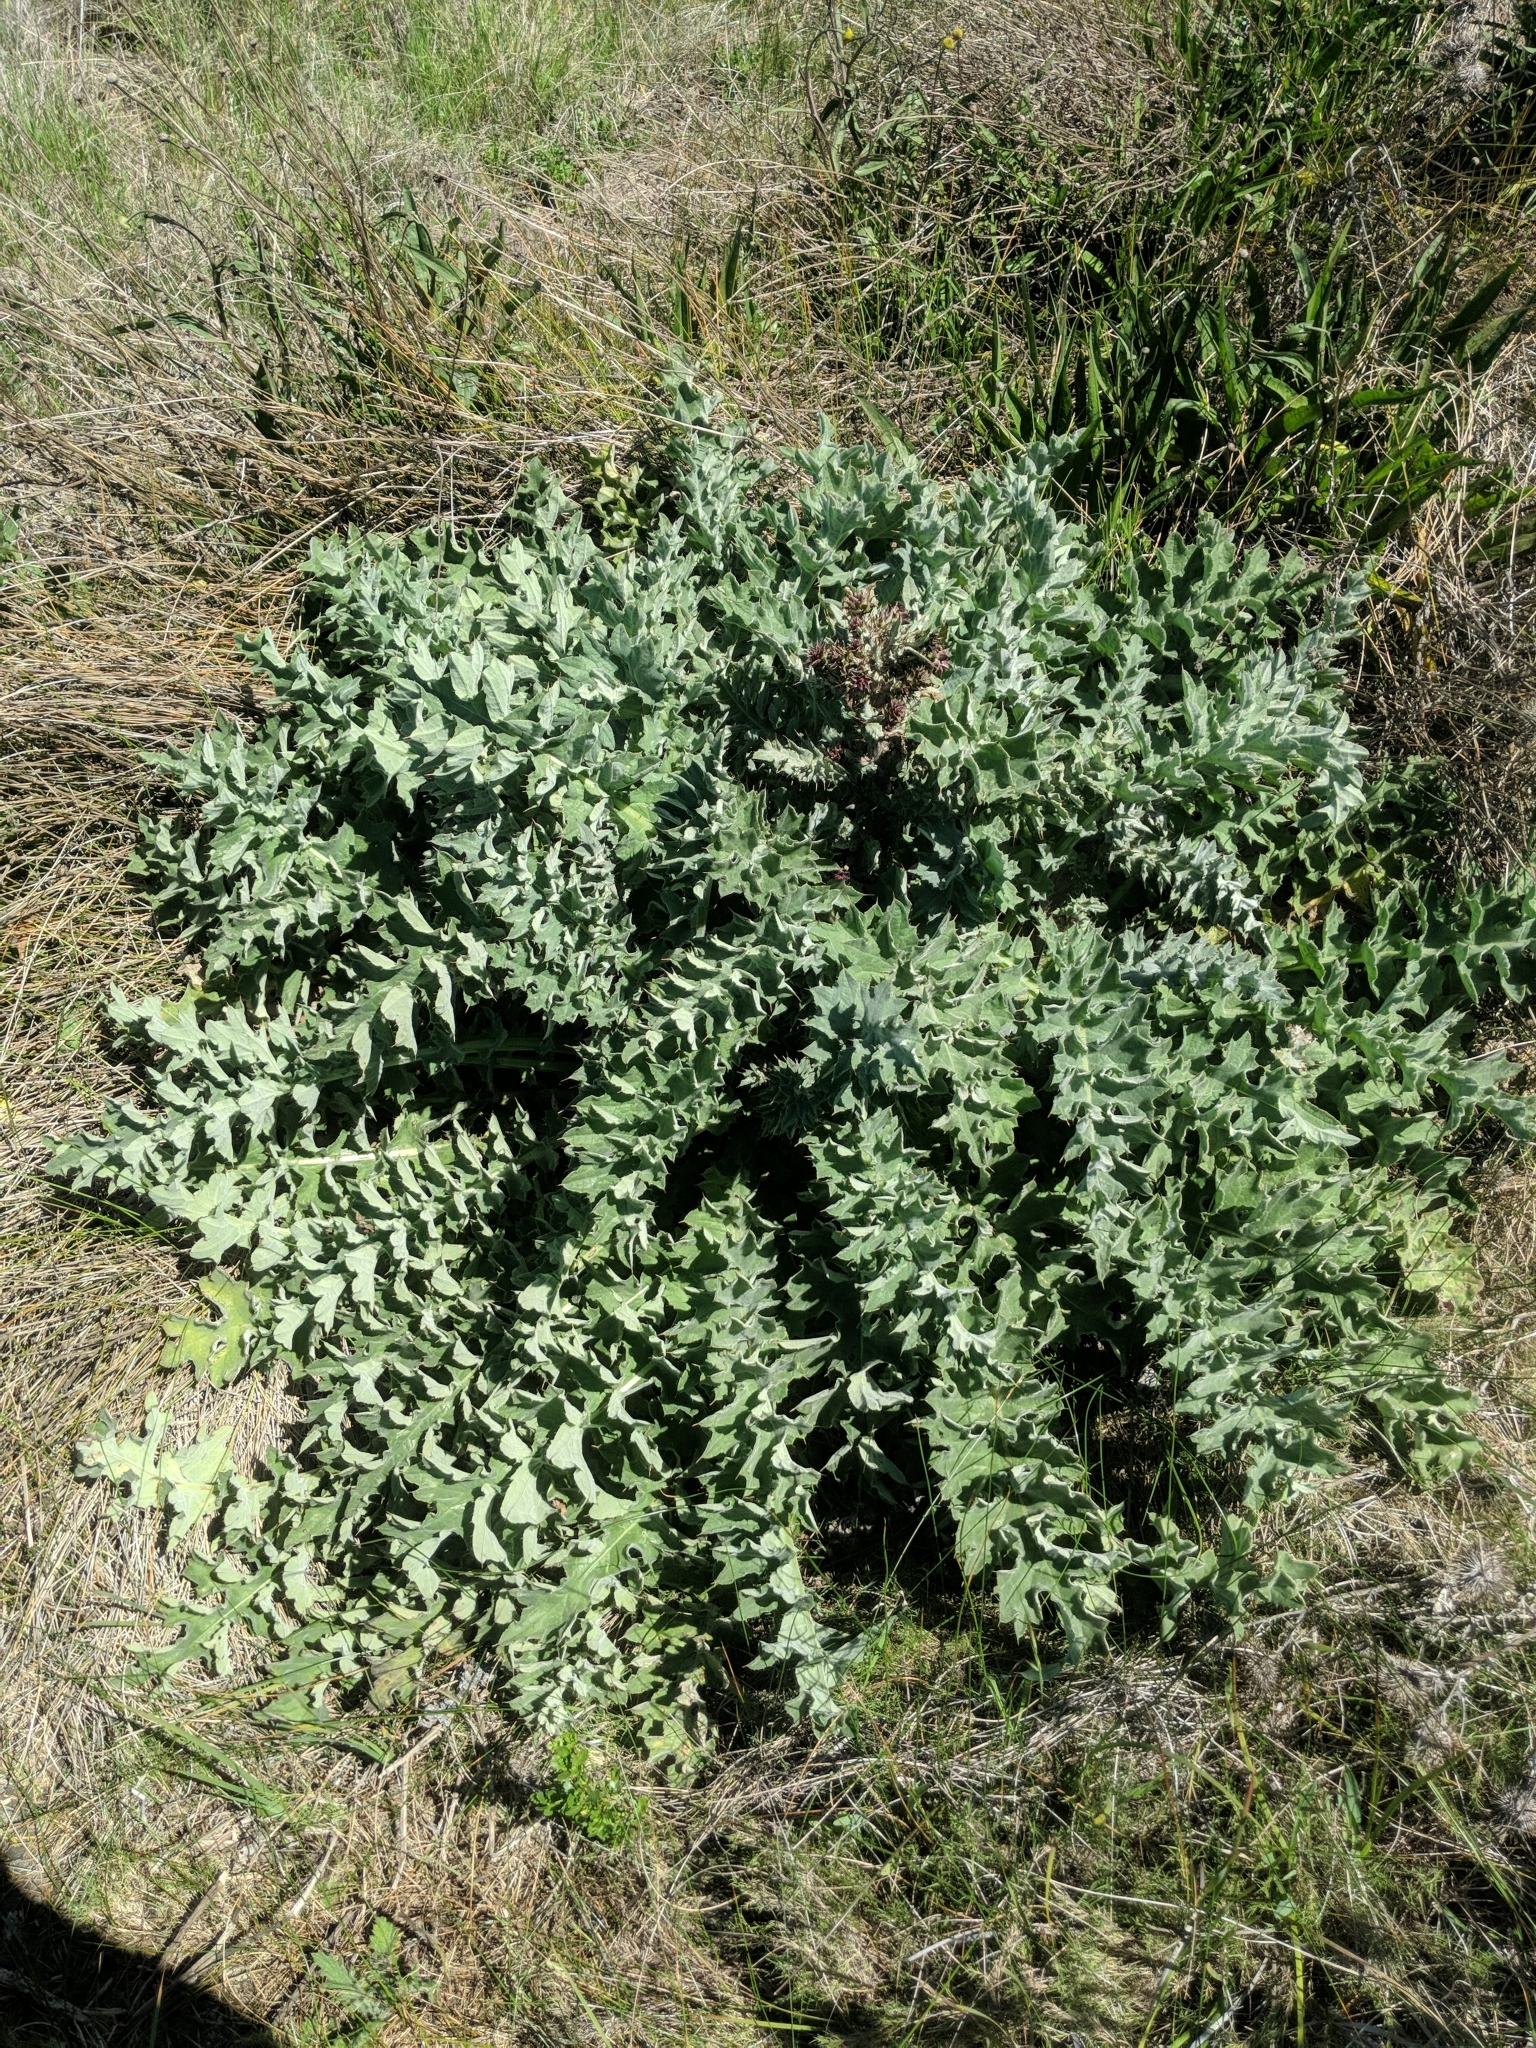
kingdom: Plantae
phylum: Tracheophyta
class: Magnoliopsida
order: Asterales
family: Asteraceae
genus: Cirsium
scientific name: Cirsium fontinale
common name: Fountain thistle
